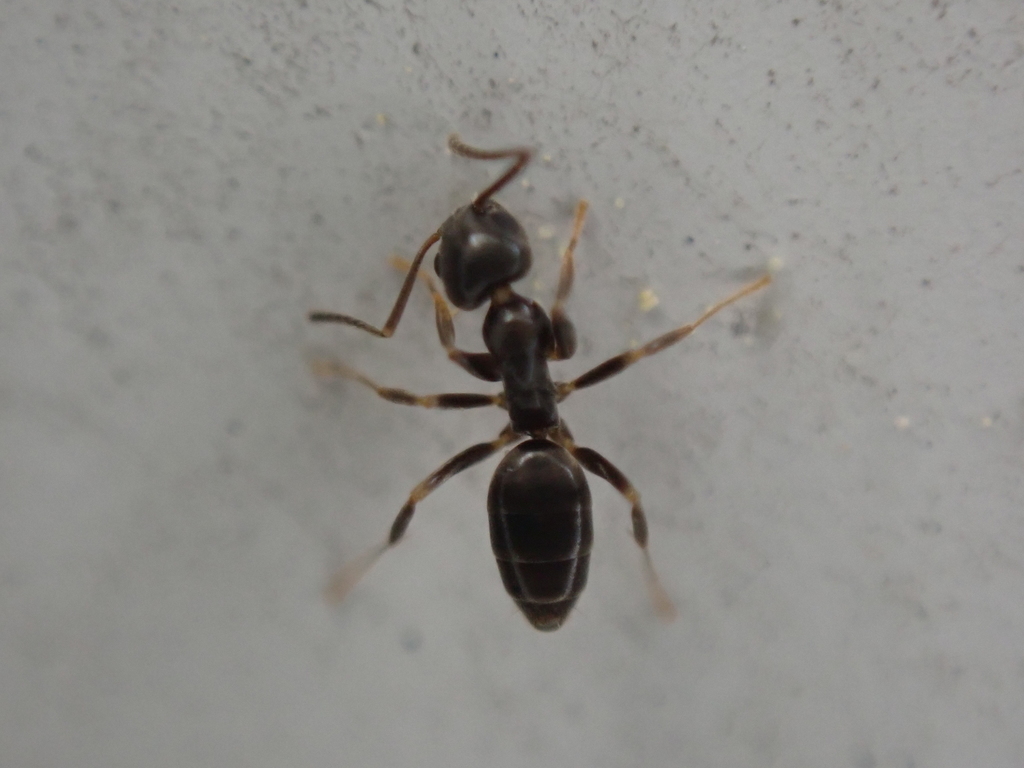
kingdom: Animalia
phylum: Arthropoda
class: Insecta
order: Hymenoptera
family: Formicidae
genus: Tapinoma
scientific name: Tapinoma sessile
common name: Odorous house ant
